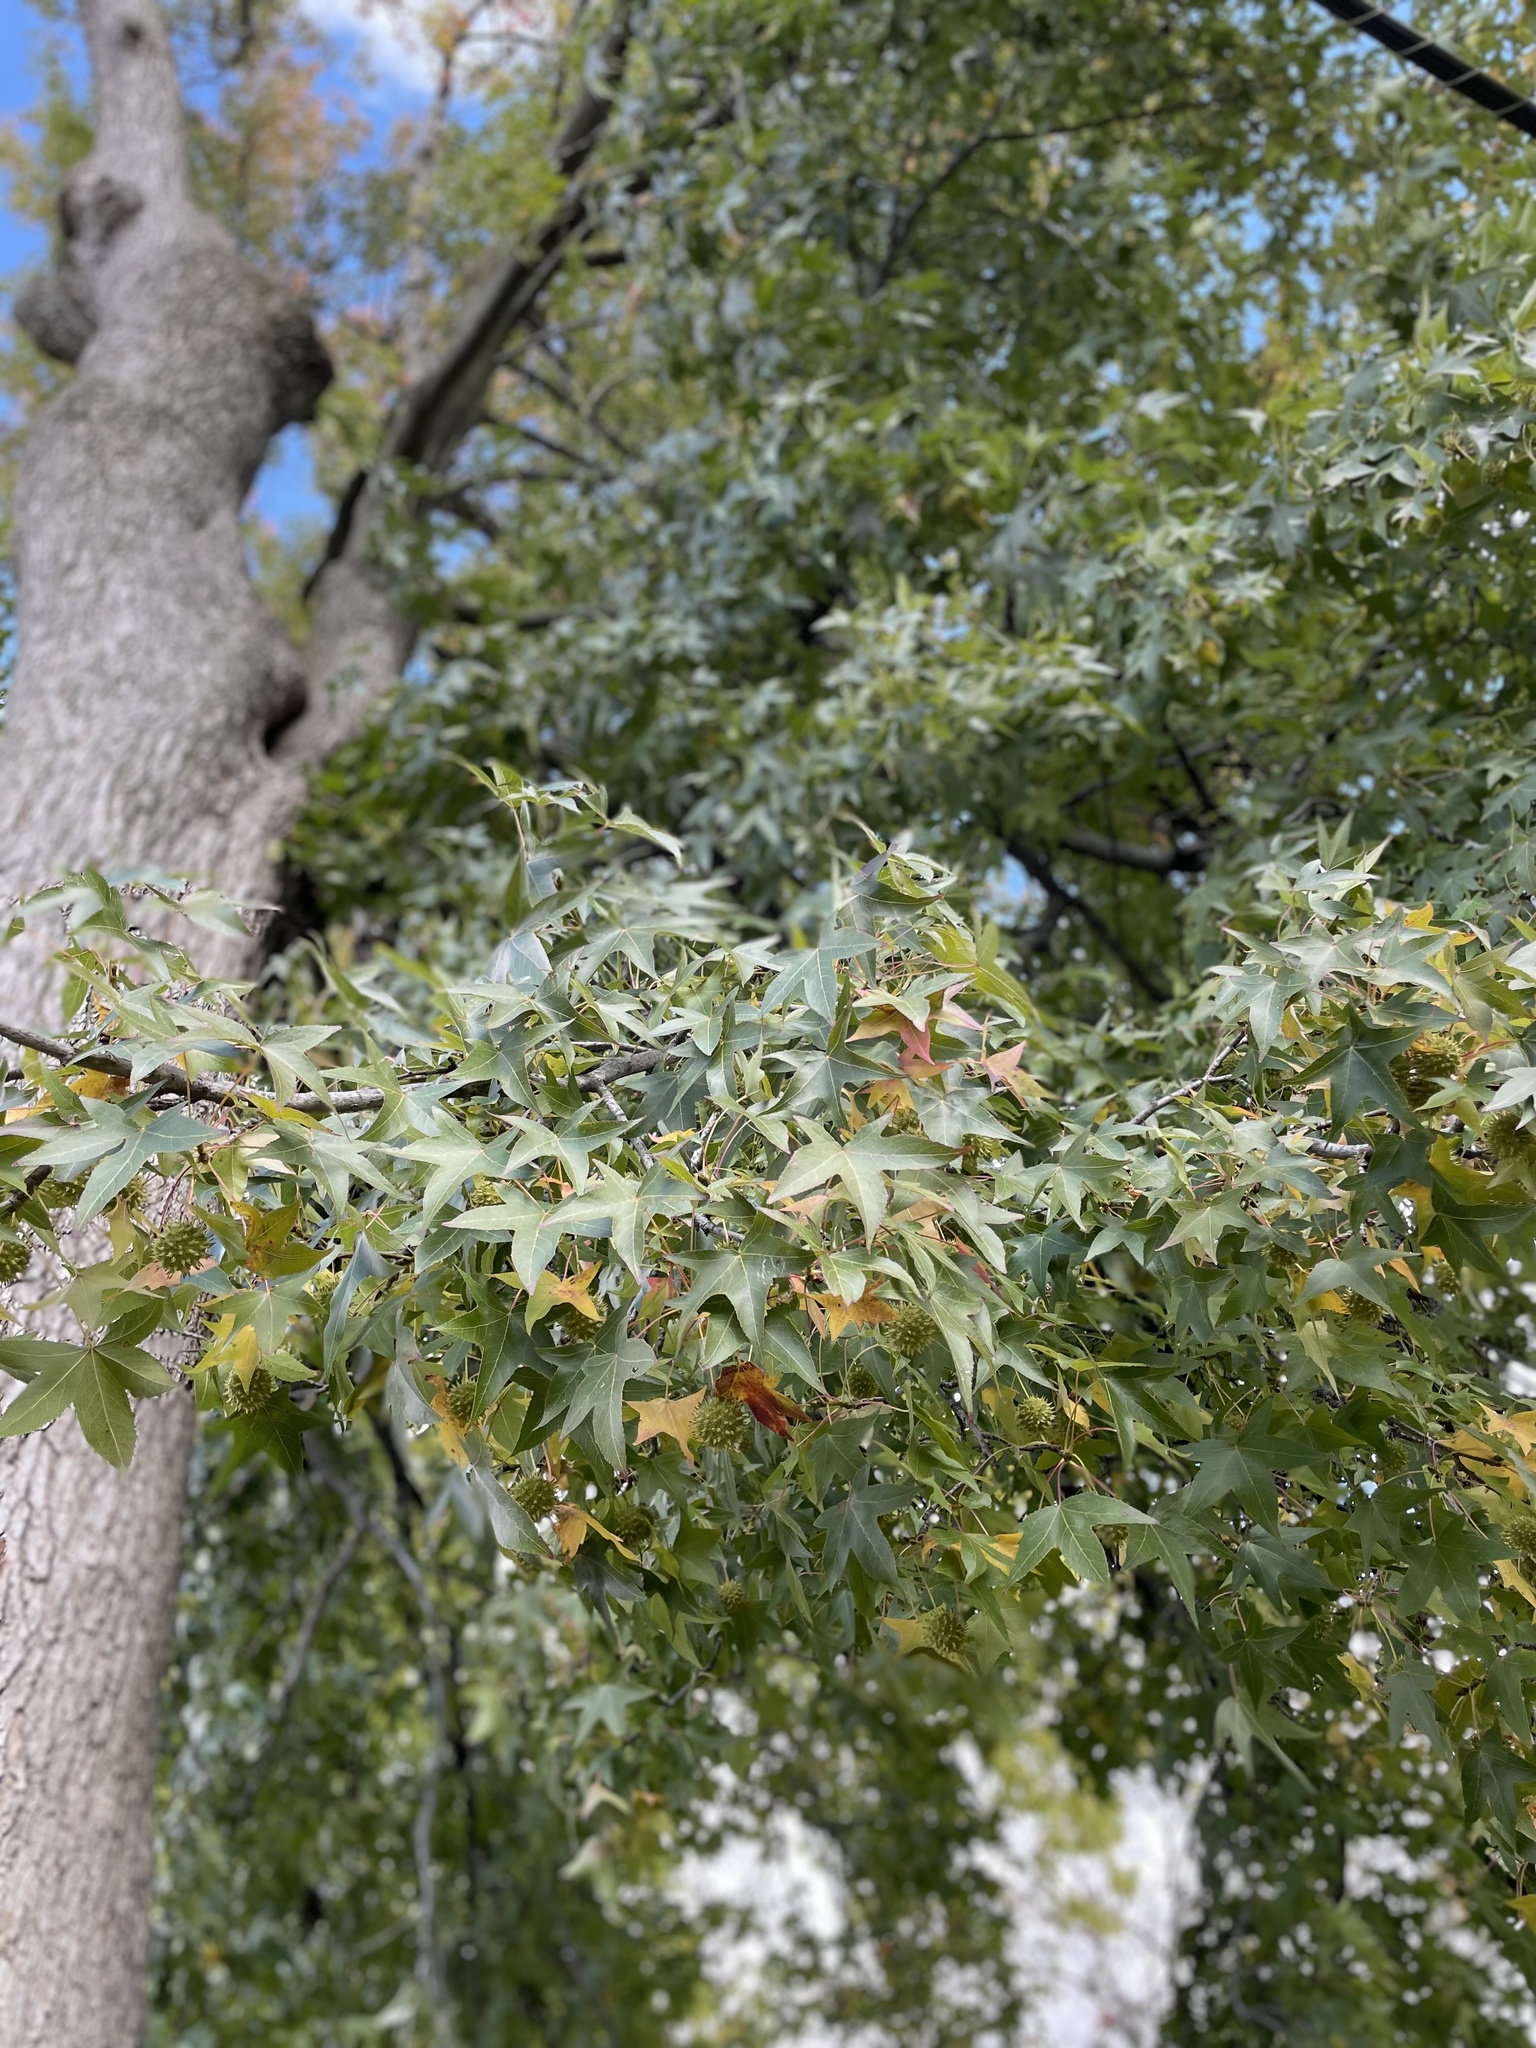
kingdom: Plantae
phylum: Tracheophyta
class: Magnoliopsida
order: Saxifragales
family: Altingiaceae
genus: Liquidambar
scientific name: Liquidambar styraciflua
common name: Sweet gum
